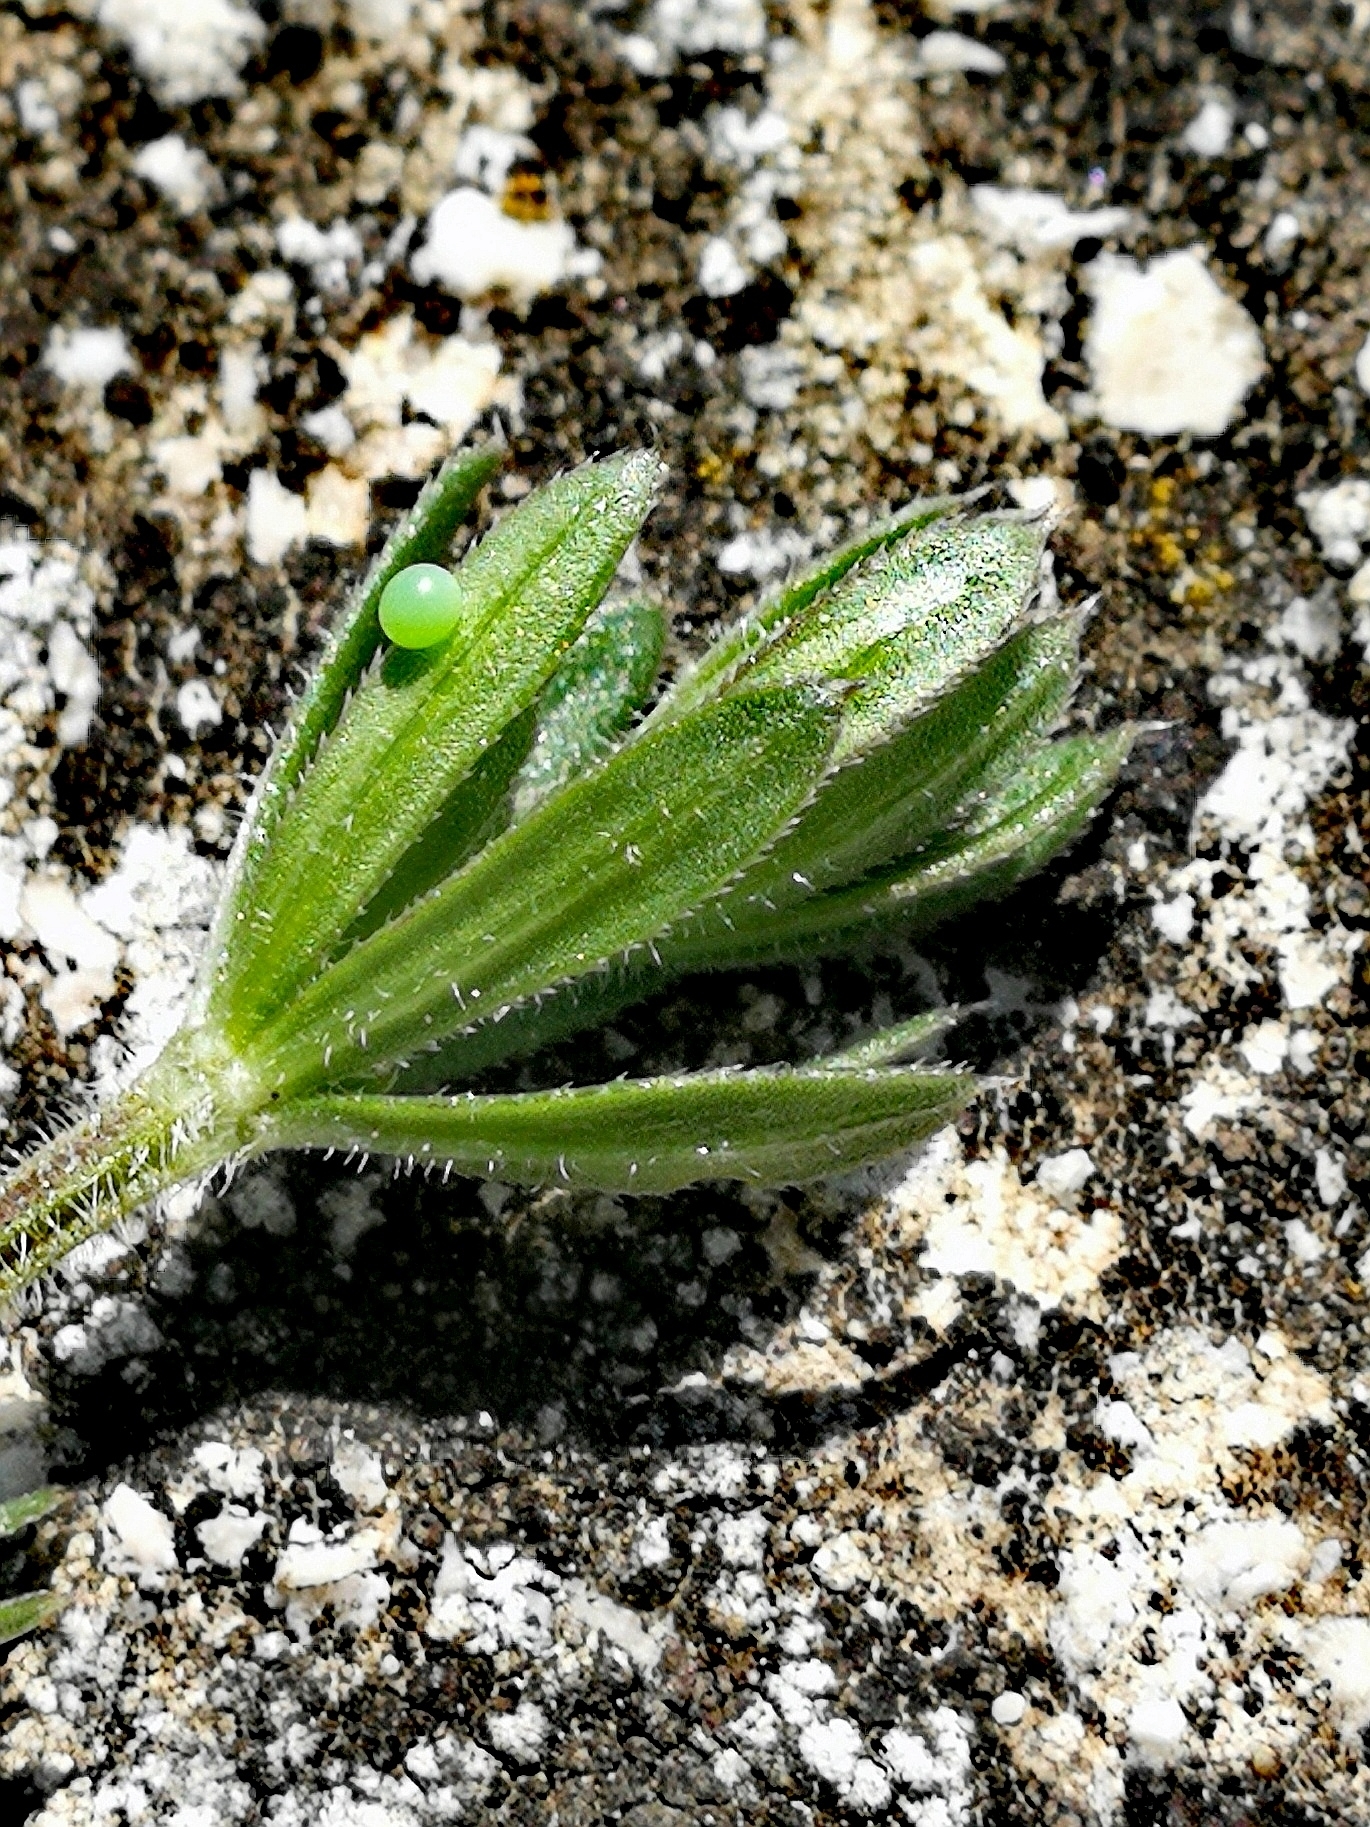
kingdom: Animalia
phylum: Arthropoda
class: Insecta
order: Lepidoptera
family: Sphingidae
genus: Macroglossum
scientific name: Macroglossum stellatarum
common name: Humming-bird hawk-moth
